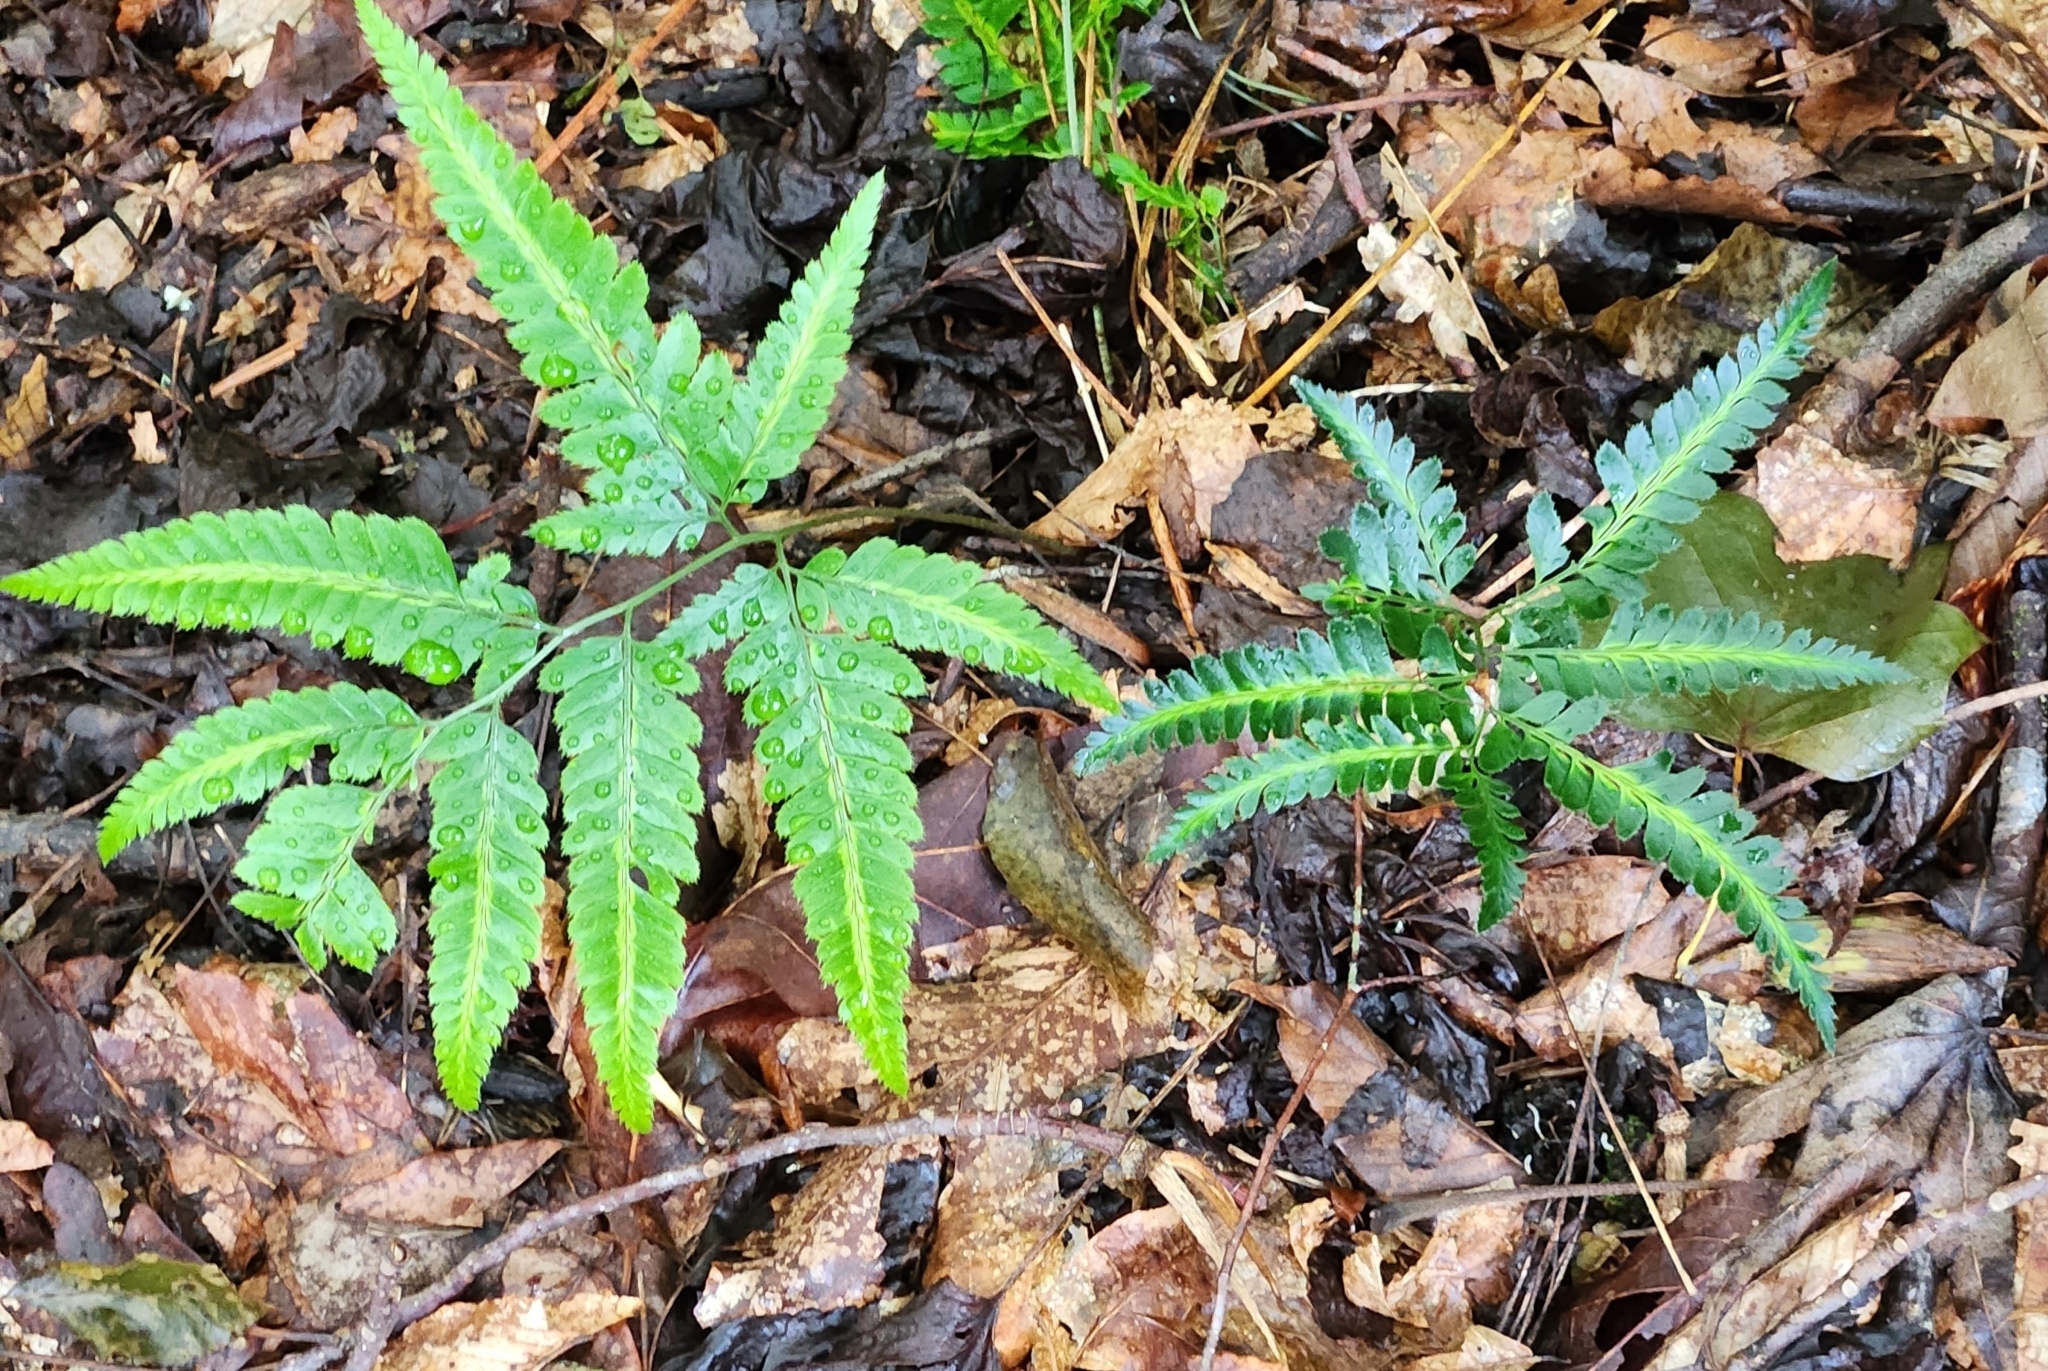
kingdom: Plantae
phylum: Tracheophyta
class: Polypodiopsida
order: Polypodiales
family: Dryopteridaceae
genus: Arachniodes
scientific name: Arachniodes simplicior
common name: Simpler hollyfern
